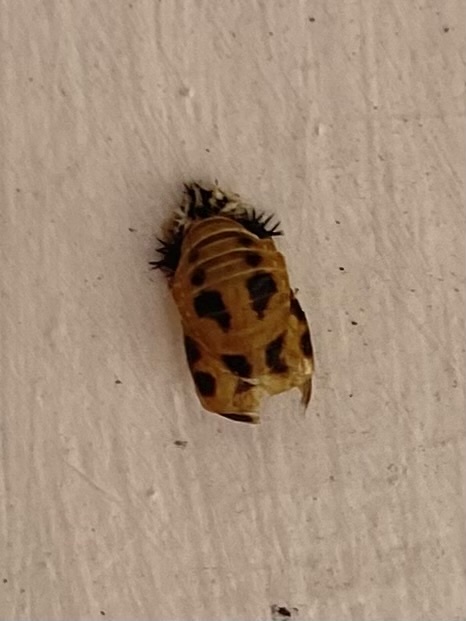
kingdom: Animalia
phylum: Arthropoda
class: Insecta
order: Coleoptera
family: Coccinellidae
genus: Harmonia
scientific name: Harmonia axyridis
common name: Harlequin ladybird
